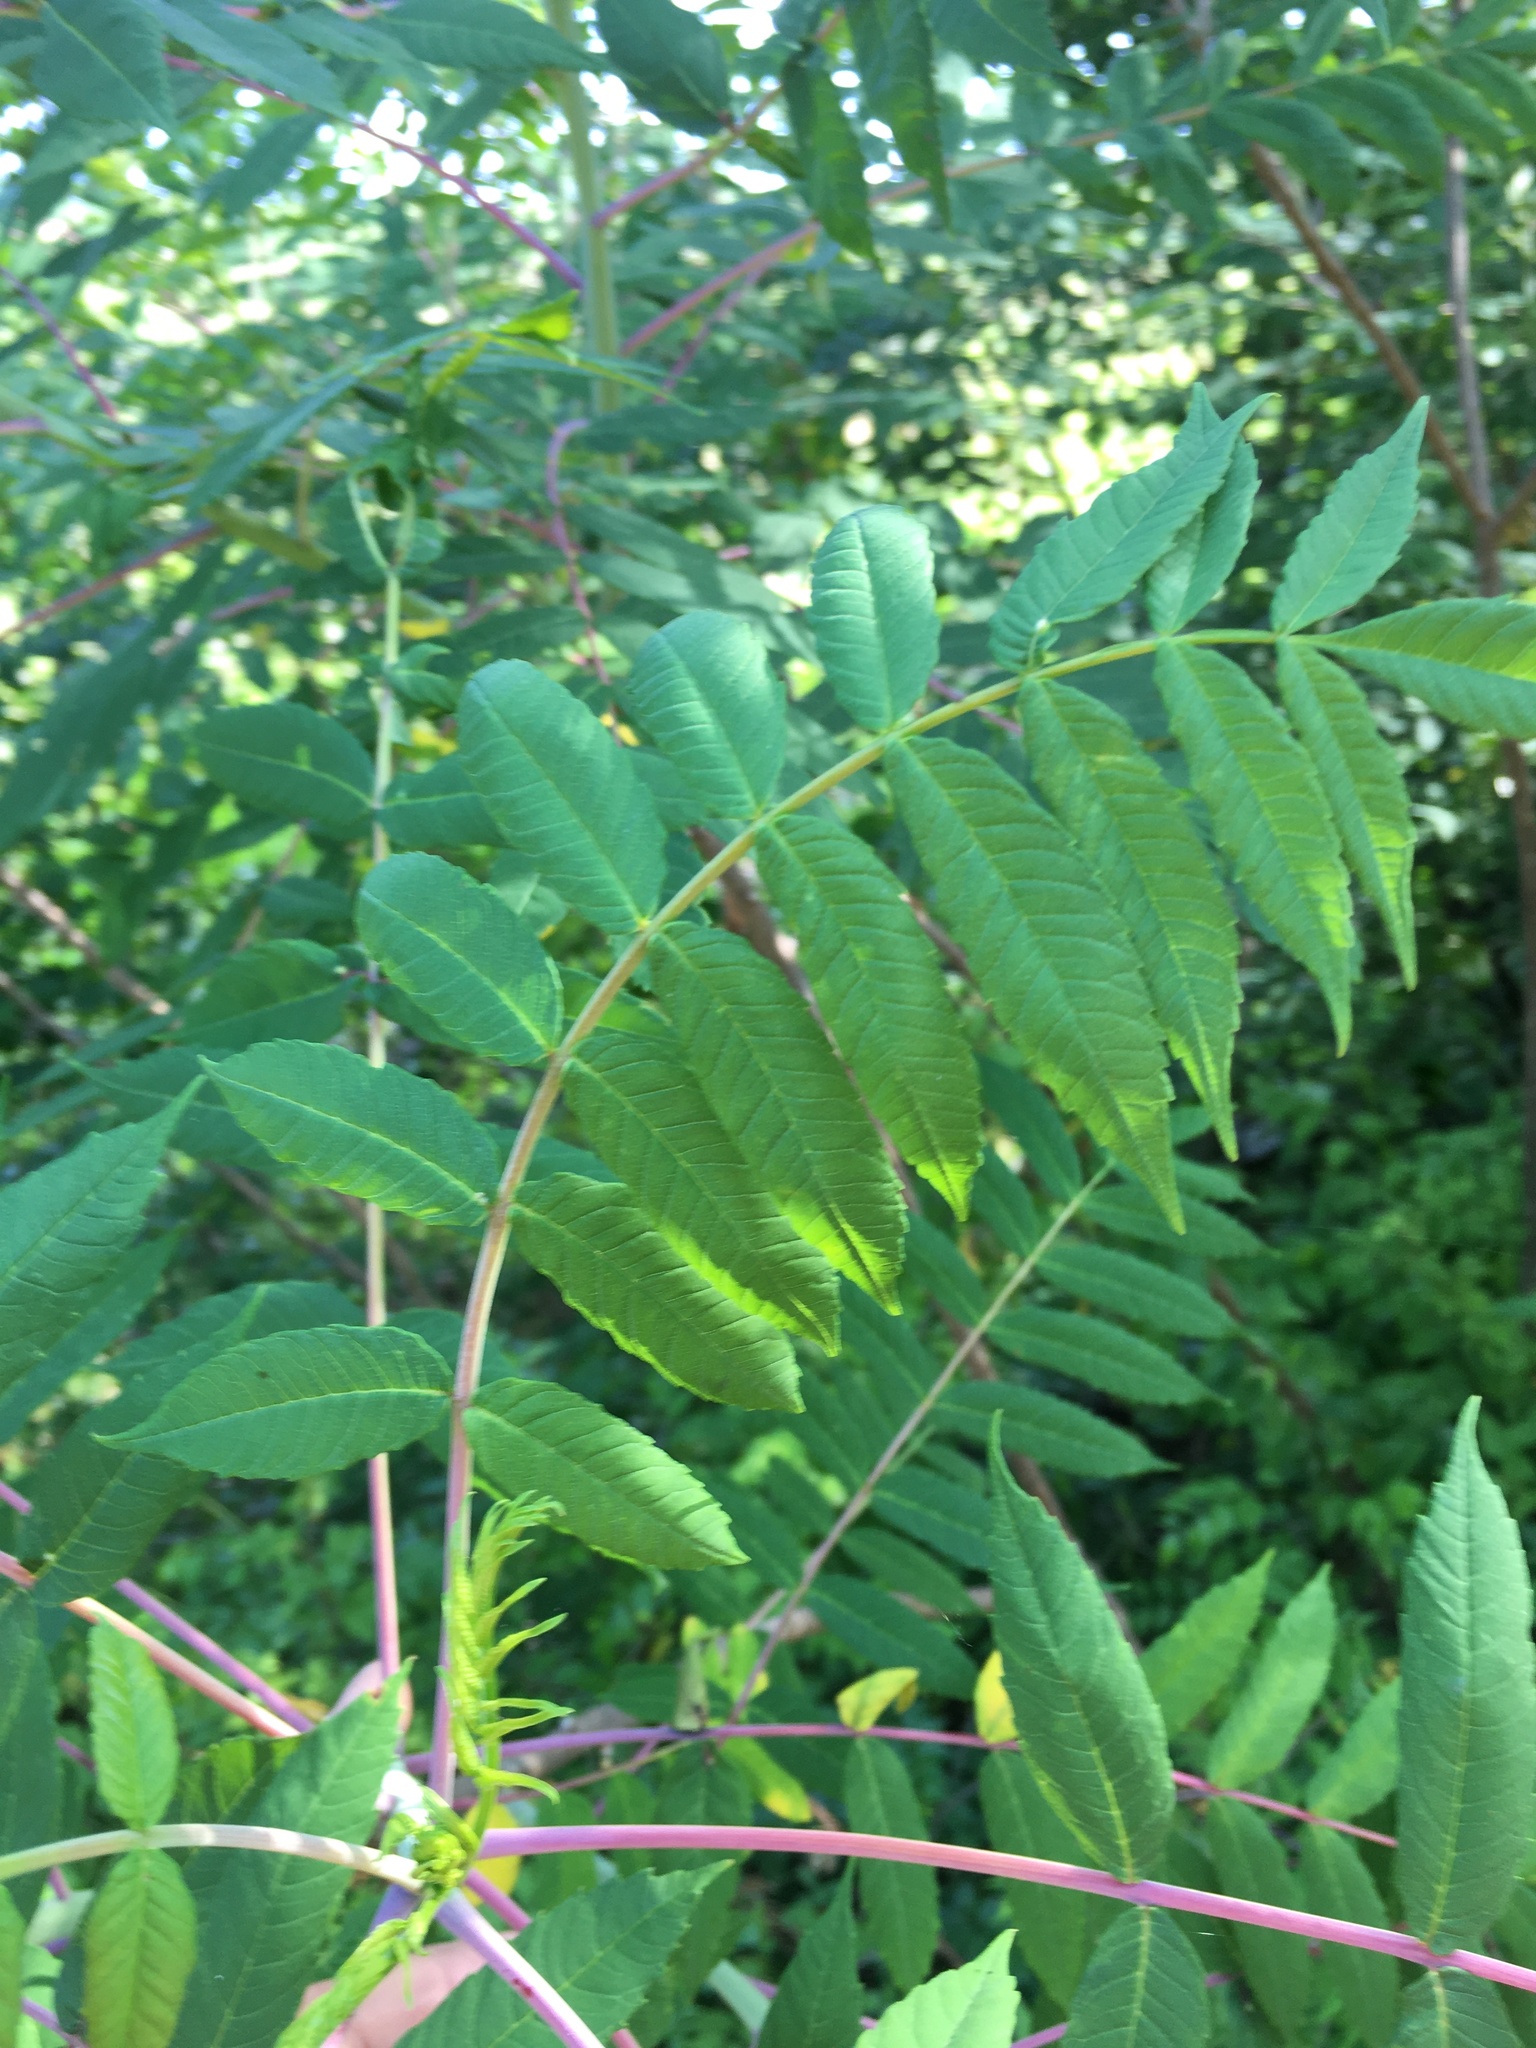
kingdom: Plantae
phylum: Tracheophyta
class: Magnoliopsida
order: Sapindales
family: Anacardiaceae
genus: Rhus
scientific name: Rhus glabra
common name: Scarlet sumac
